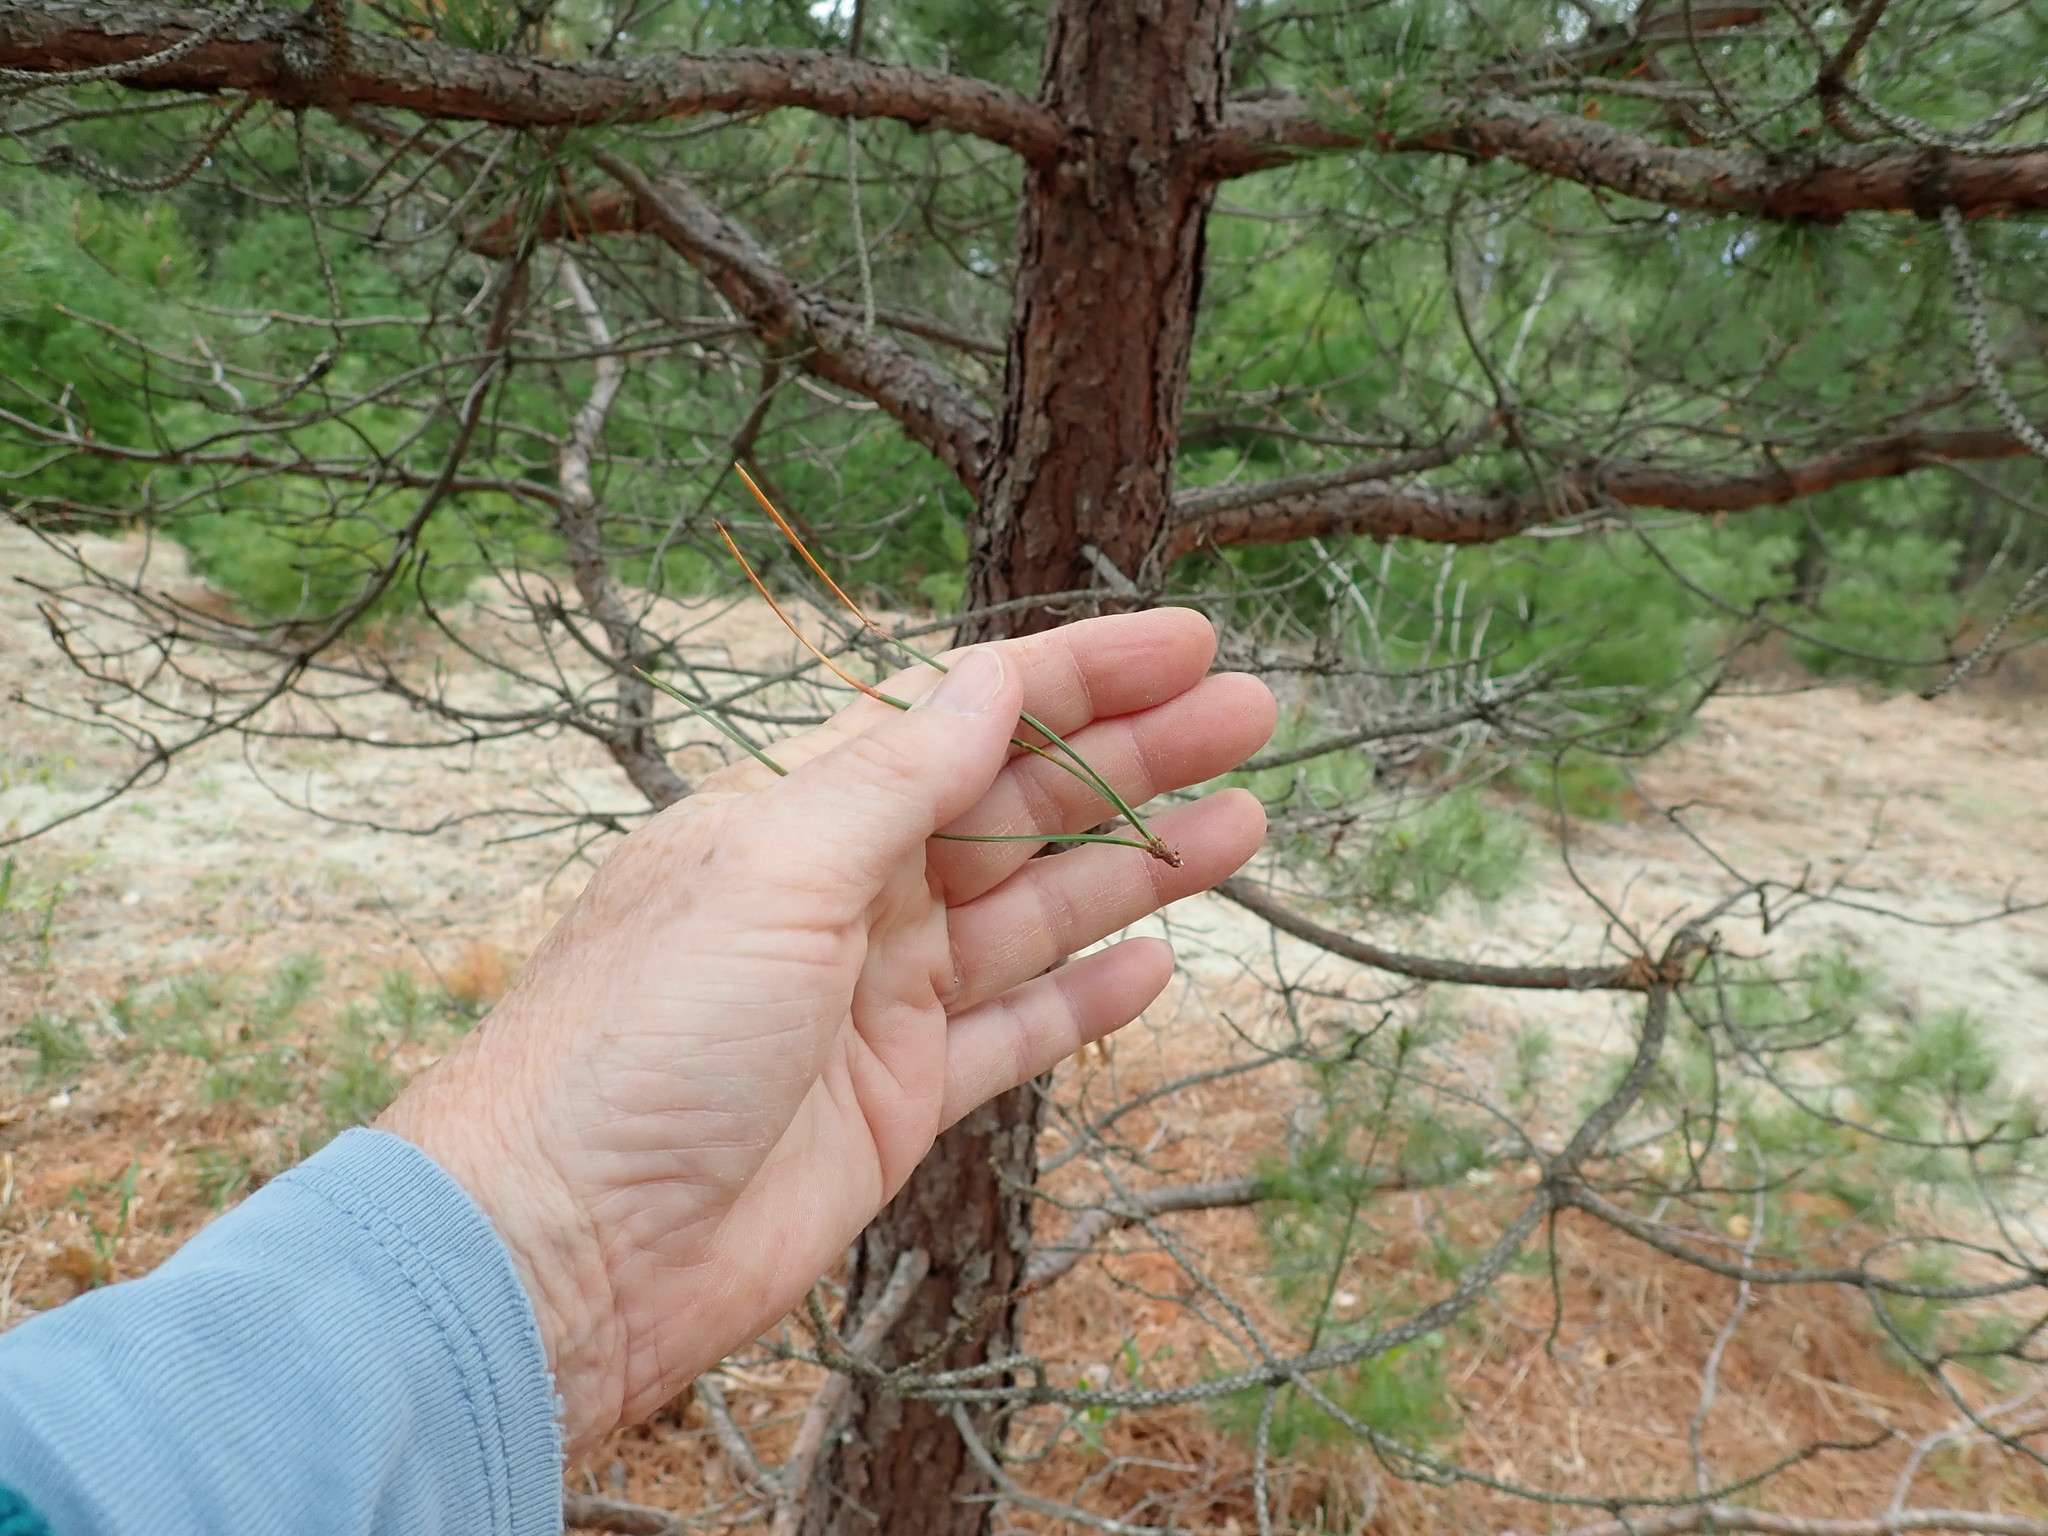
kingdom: Plantae
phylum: Tracheophyta
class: Pinopsida
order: Pinales
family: Pinaceae
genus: Pinus
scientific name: Pinus rigida
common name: Pitch pine
